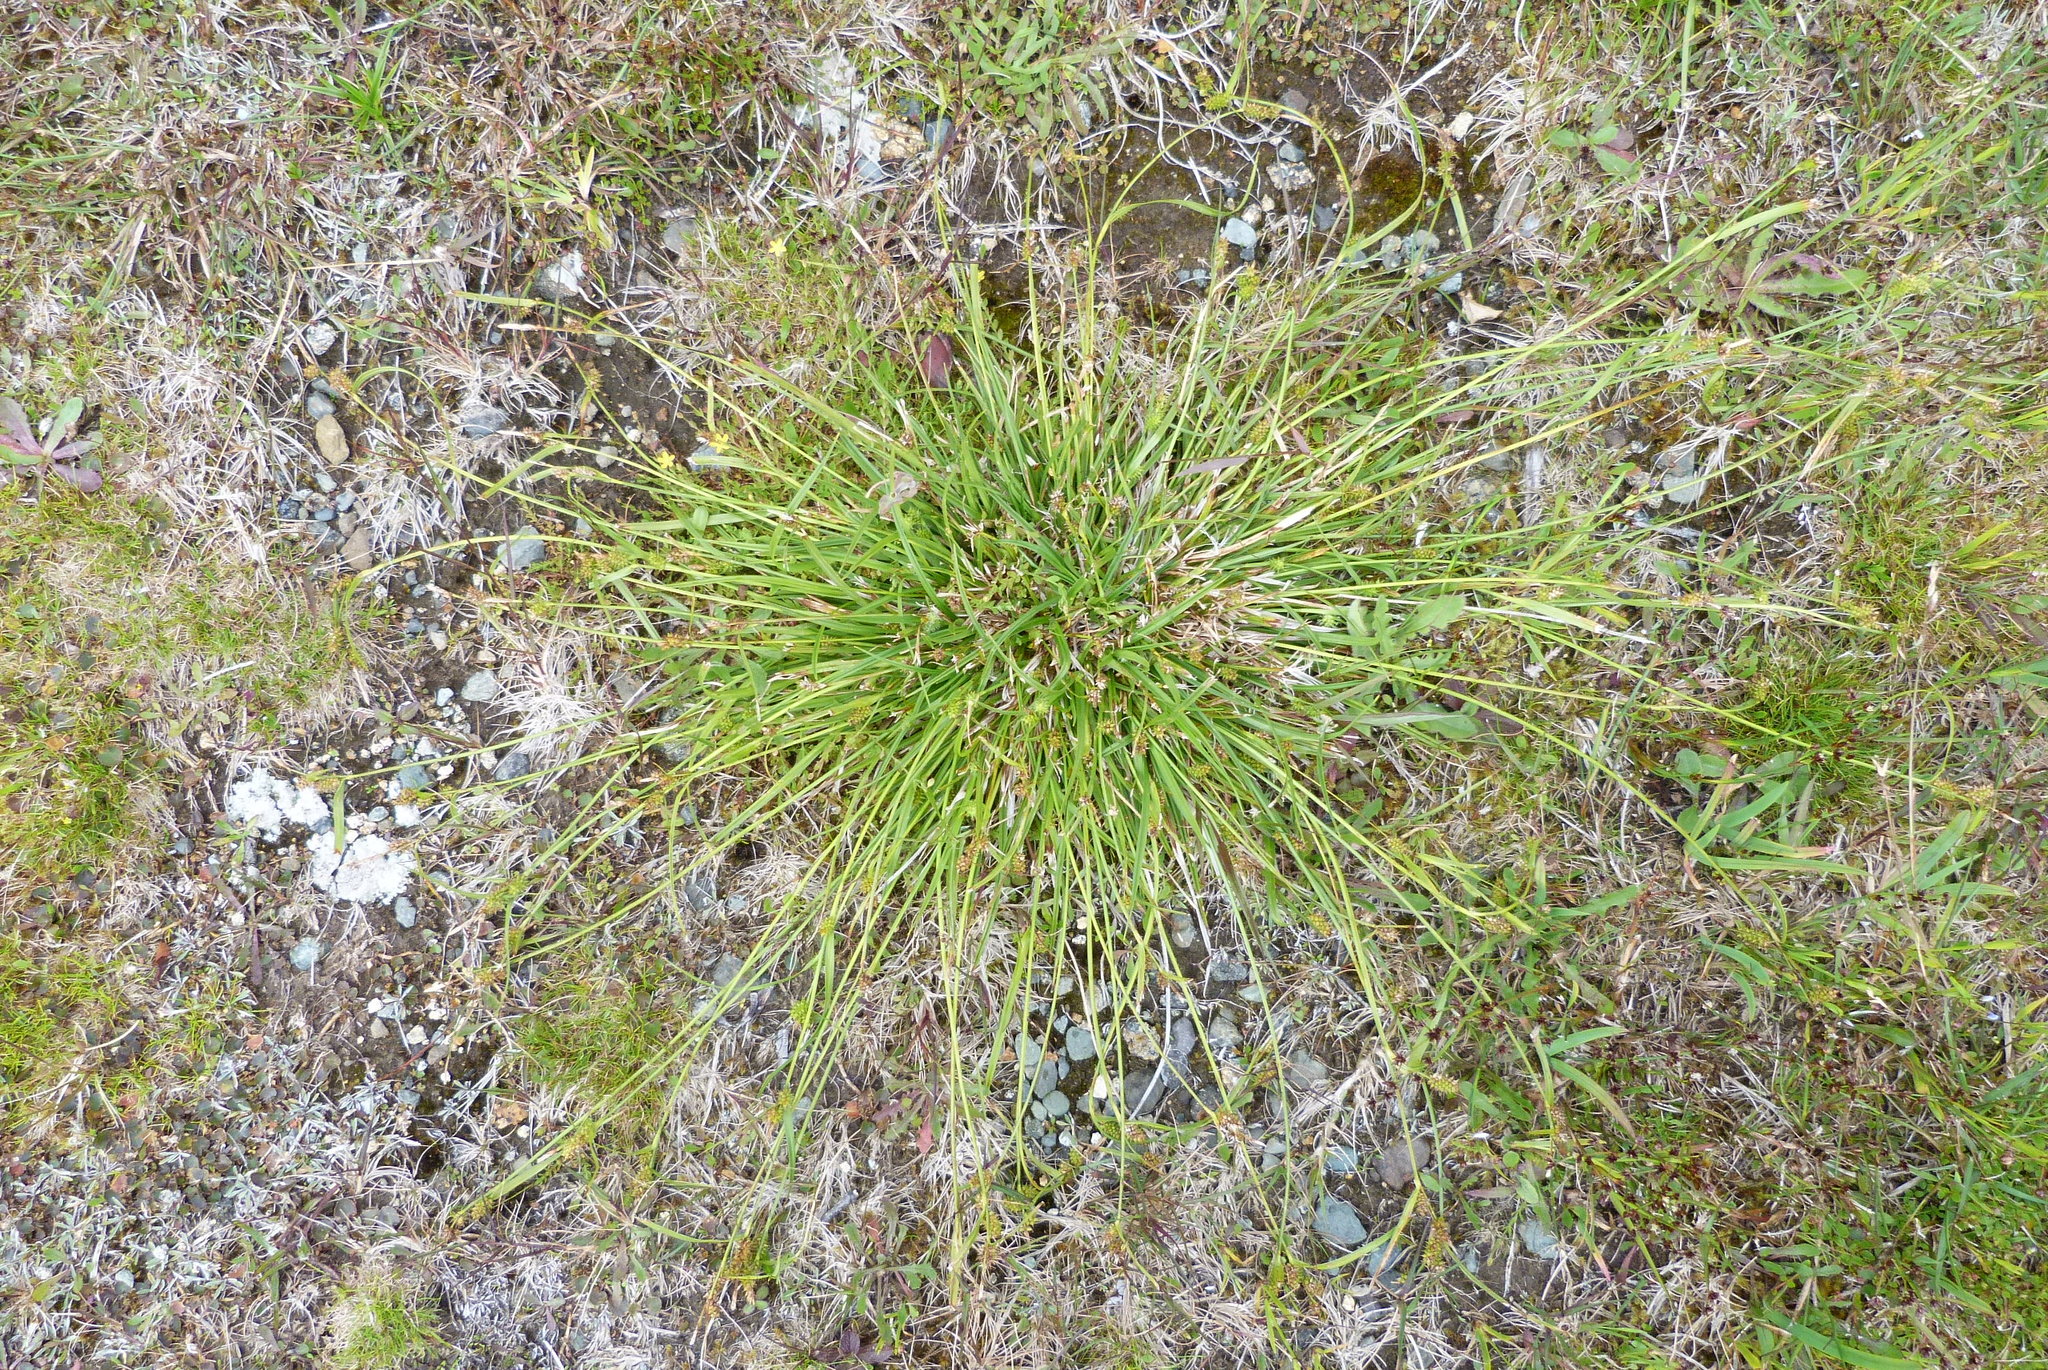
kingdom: Plantae
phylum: Tracheophyta
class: Liliopsida
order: Poales
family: Cyperaceae
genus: Carex
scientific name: Carex demissa
